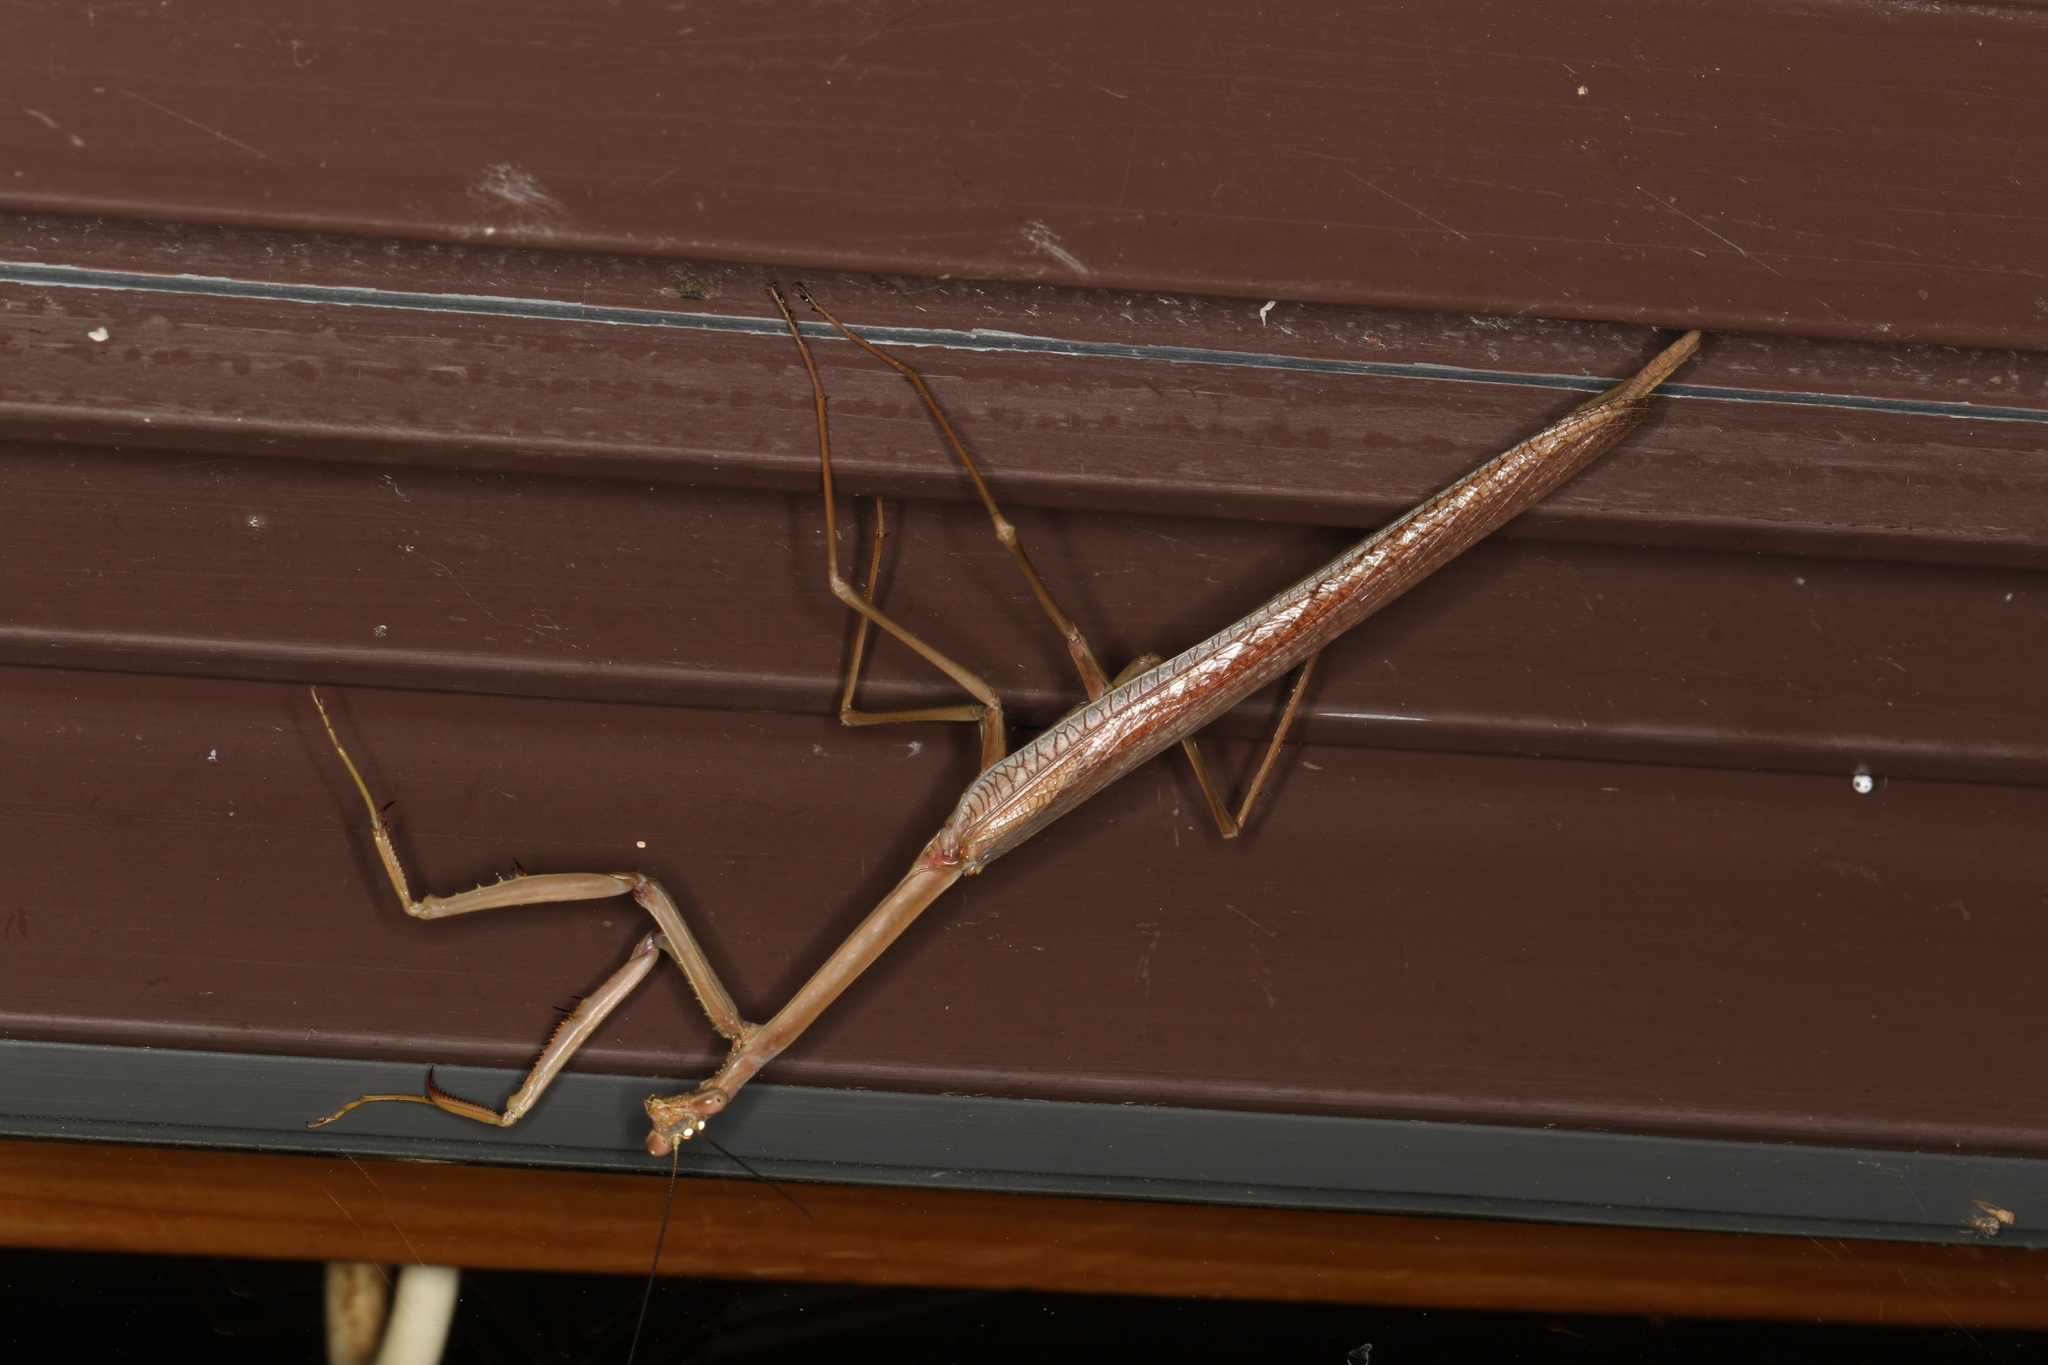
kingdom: Animalia
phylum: Arthropoda
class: Insecta
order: Mantodea
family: Mantidae
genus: Archimantis
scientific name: Archimantis latistyla
